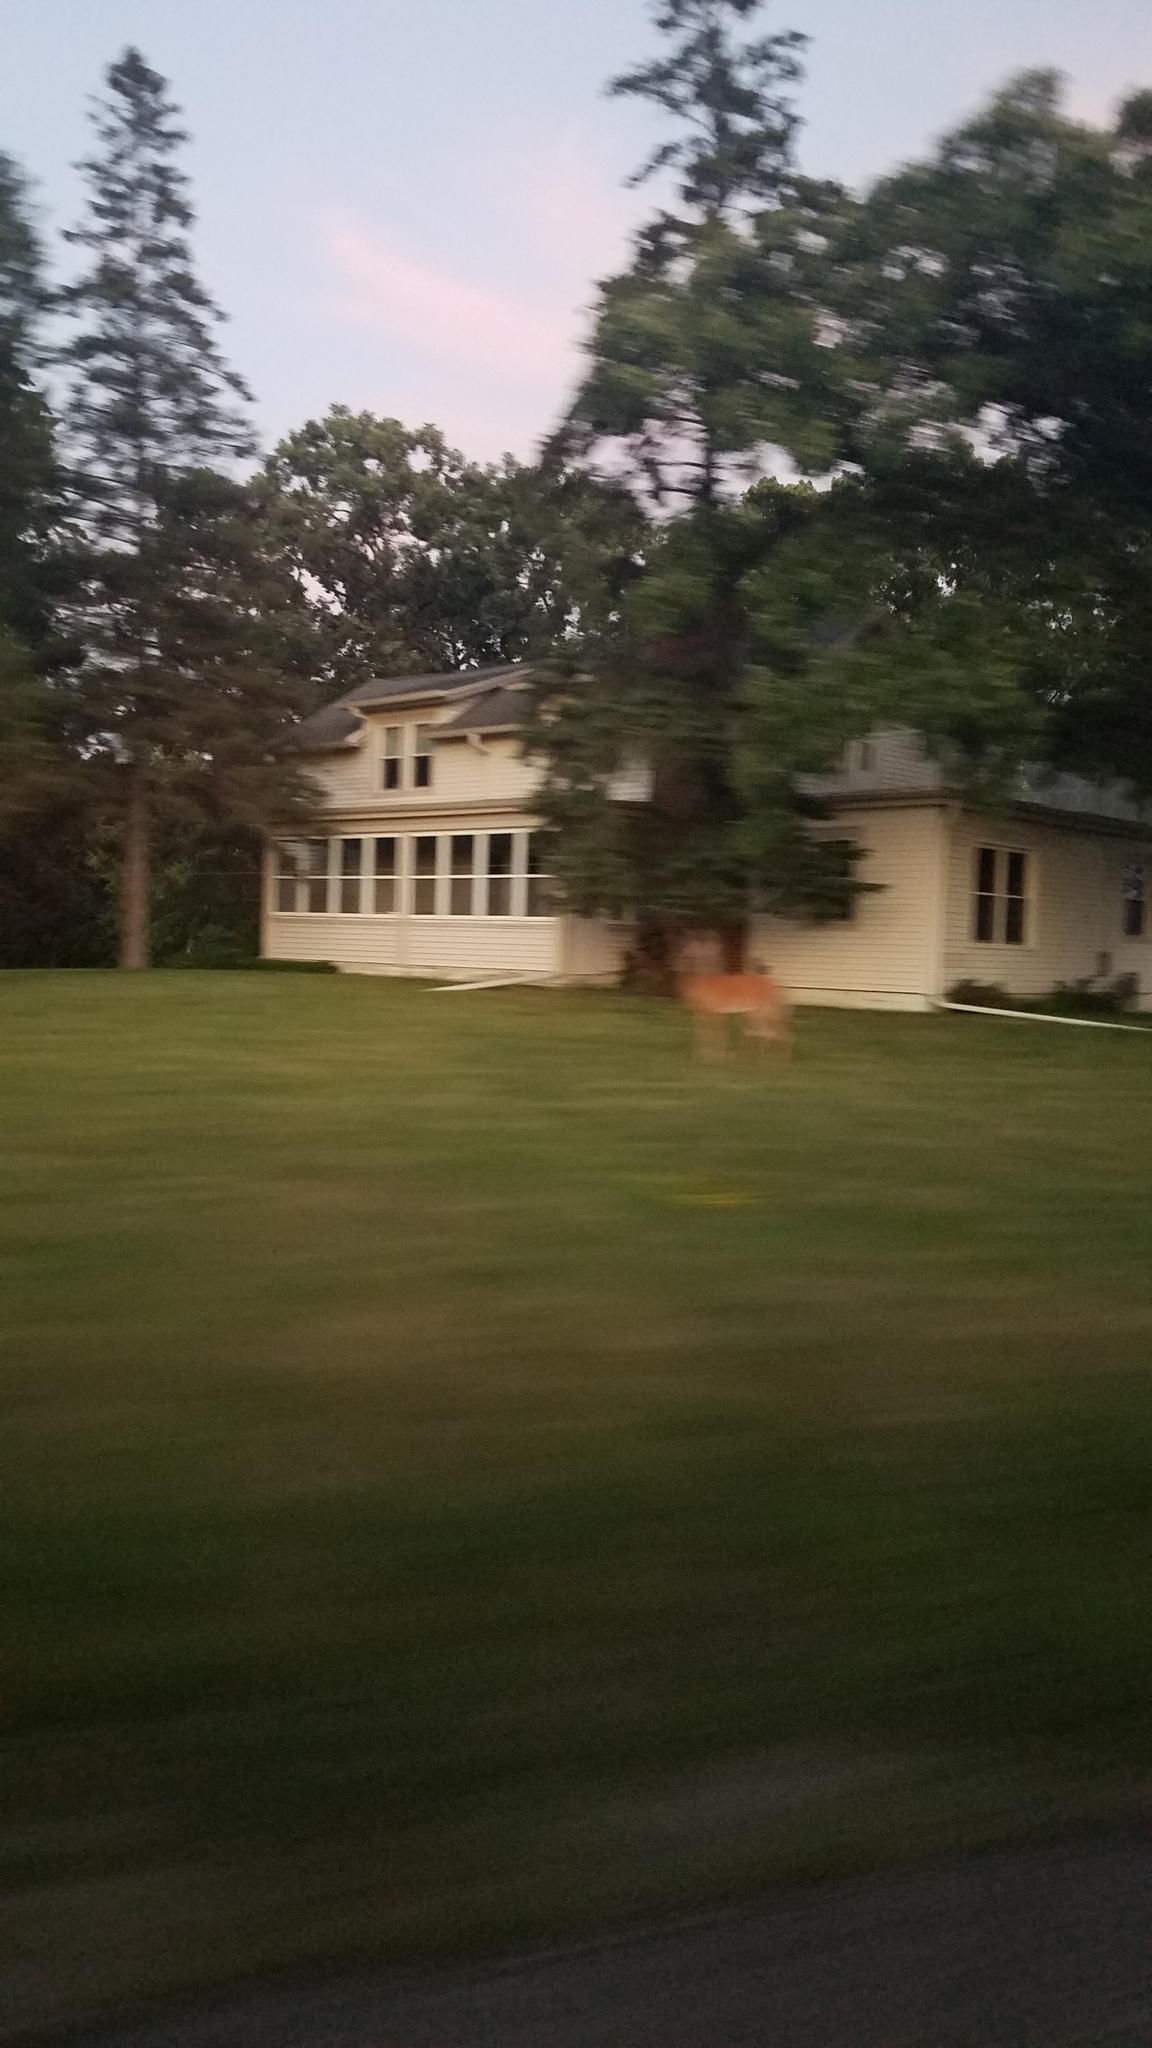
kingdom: Animalia
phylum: Chordata
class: Mammalia
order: Artiodactyla
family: Cervidae
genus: Odocoileus
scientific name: Odocoileus virginianus
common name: White-tailed deer
